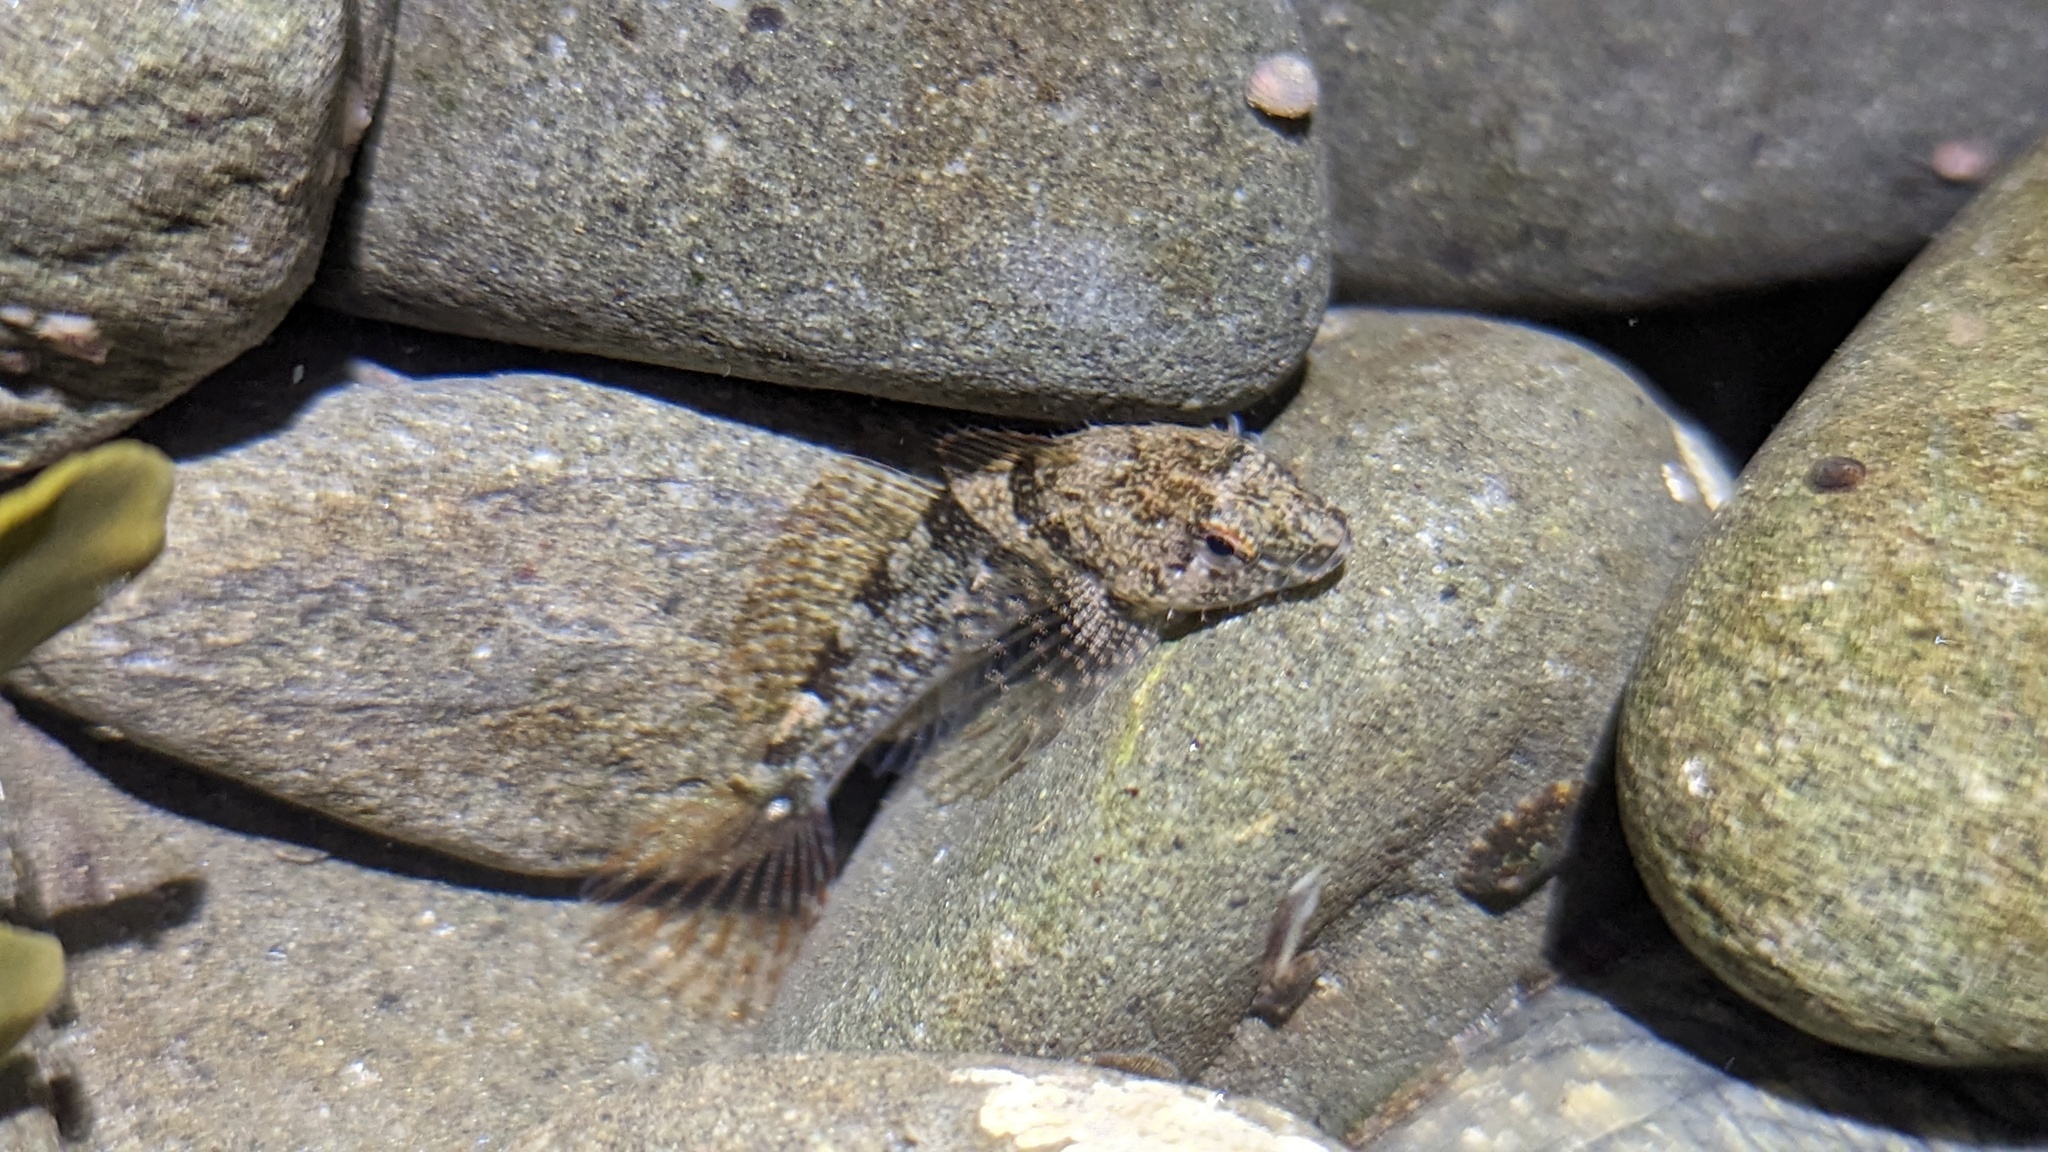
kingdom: Animalia
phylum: Chordata
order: Scorpaeniformes
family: Cottidae
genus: Oligocottus
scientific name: Oligocottus maculosus
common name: Tidepool sculpin
